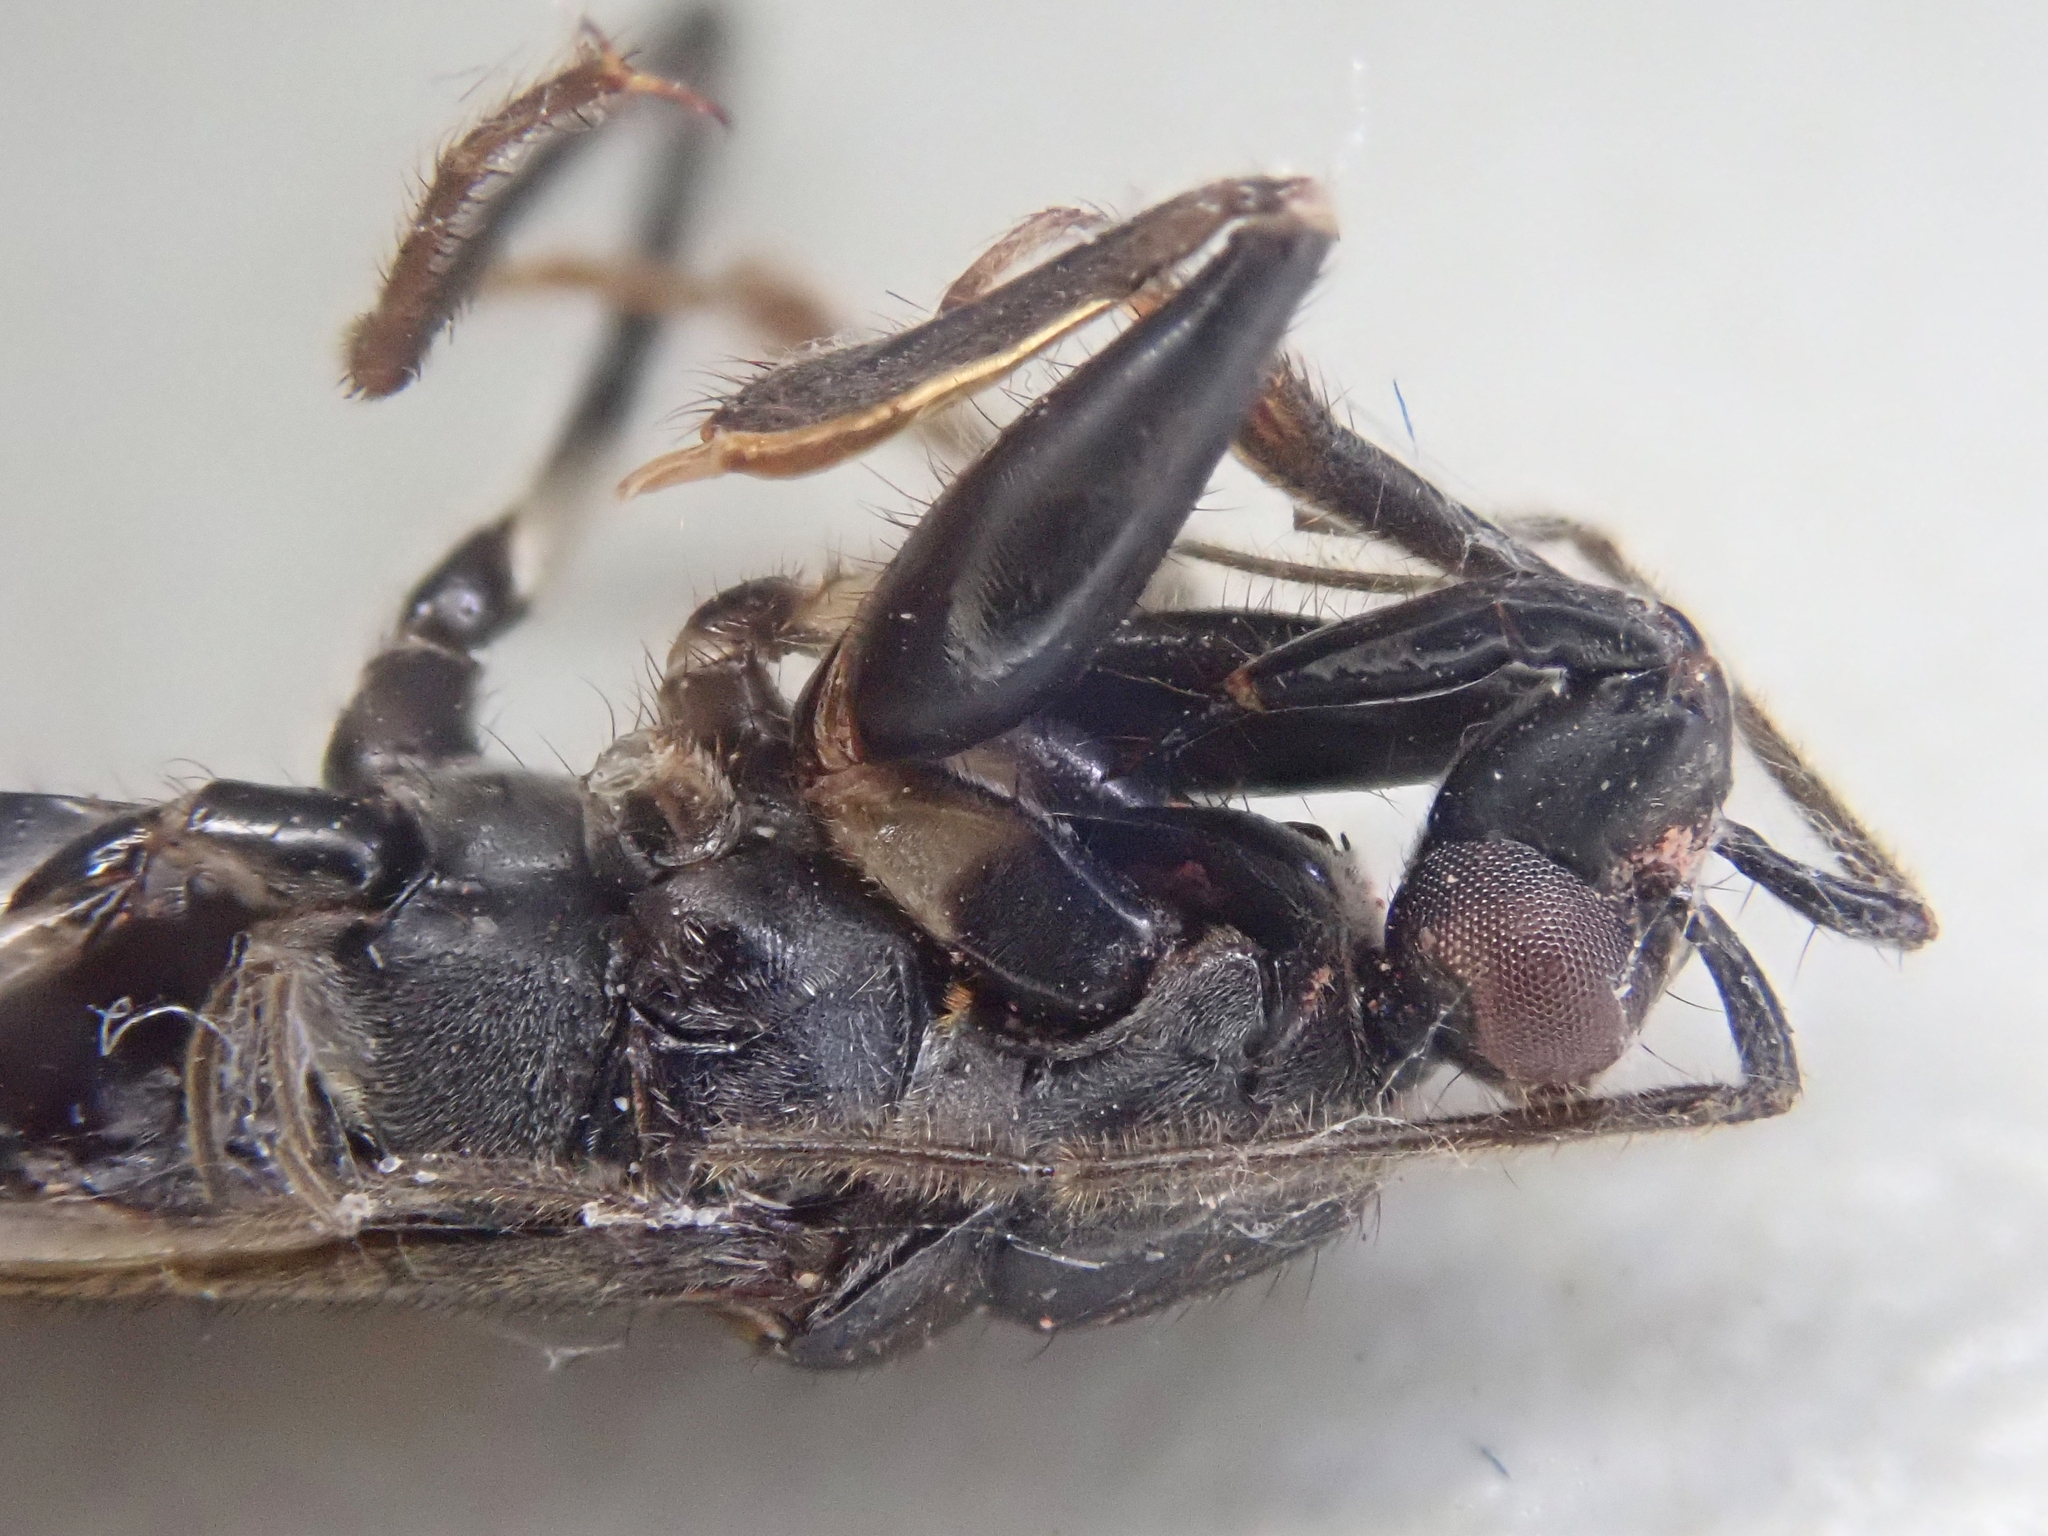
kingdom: Animalia
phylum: Arthropoda
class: Insecta
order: Hemiptera
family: Reduviidae
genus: Rasahus
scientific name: Rasahus amapaensis
